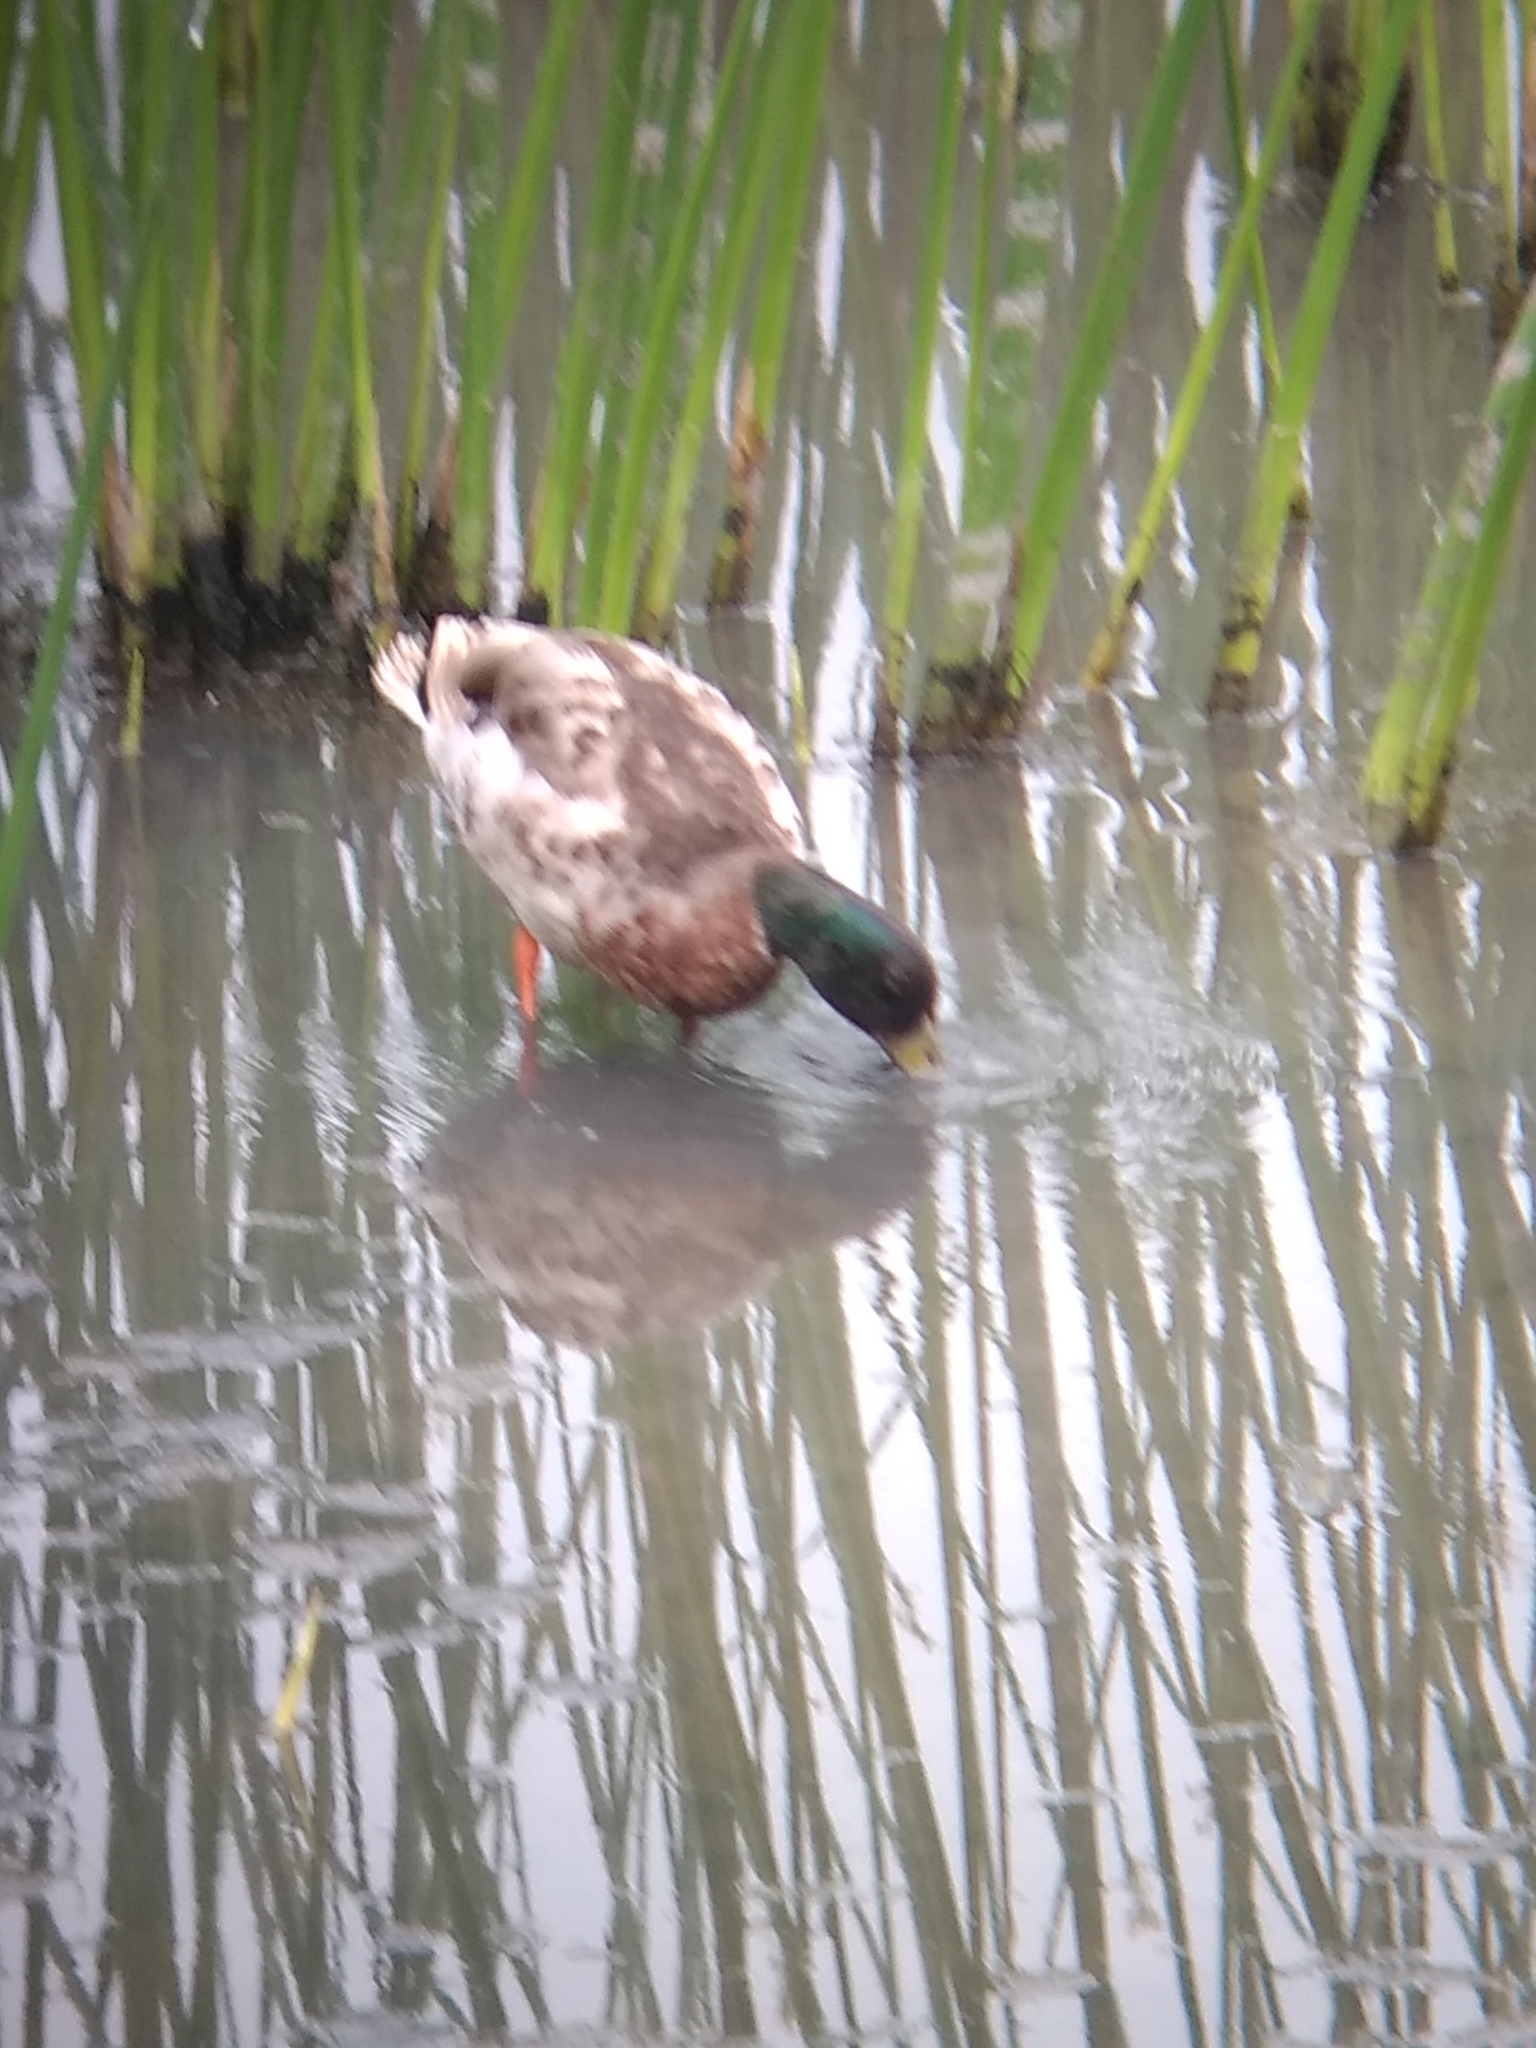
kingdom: Animalia
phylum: Chordata
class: Aves
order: Anseriformes
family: Anatidae
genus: Anas
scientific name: Anas platyrhynchos
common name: Mallard
